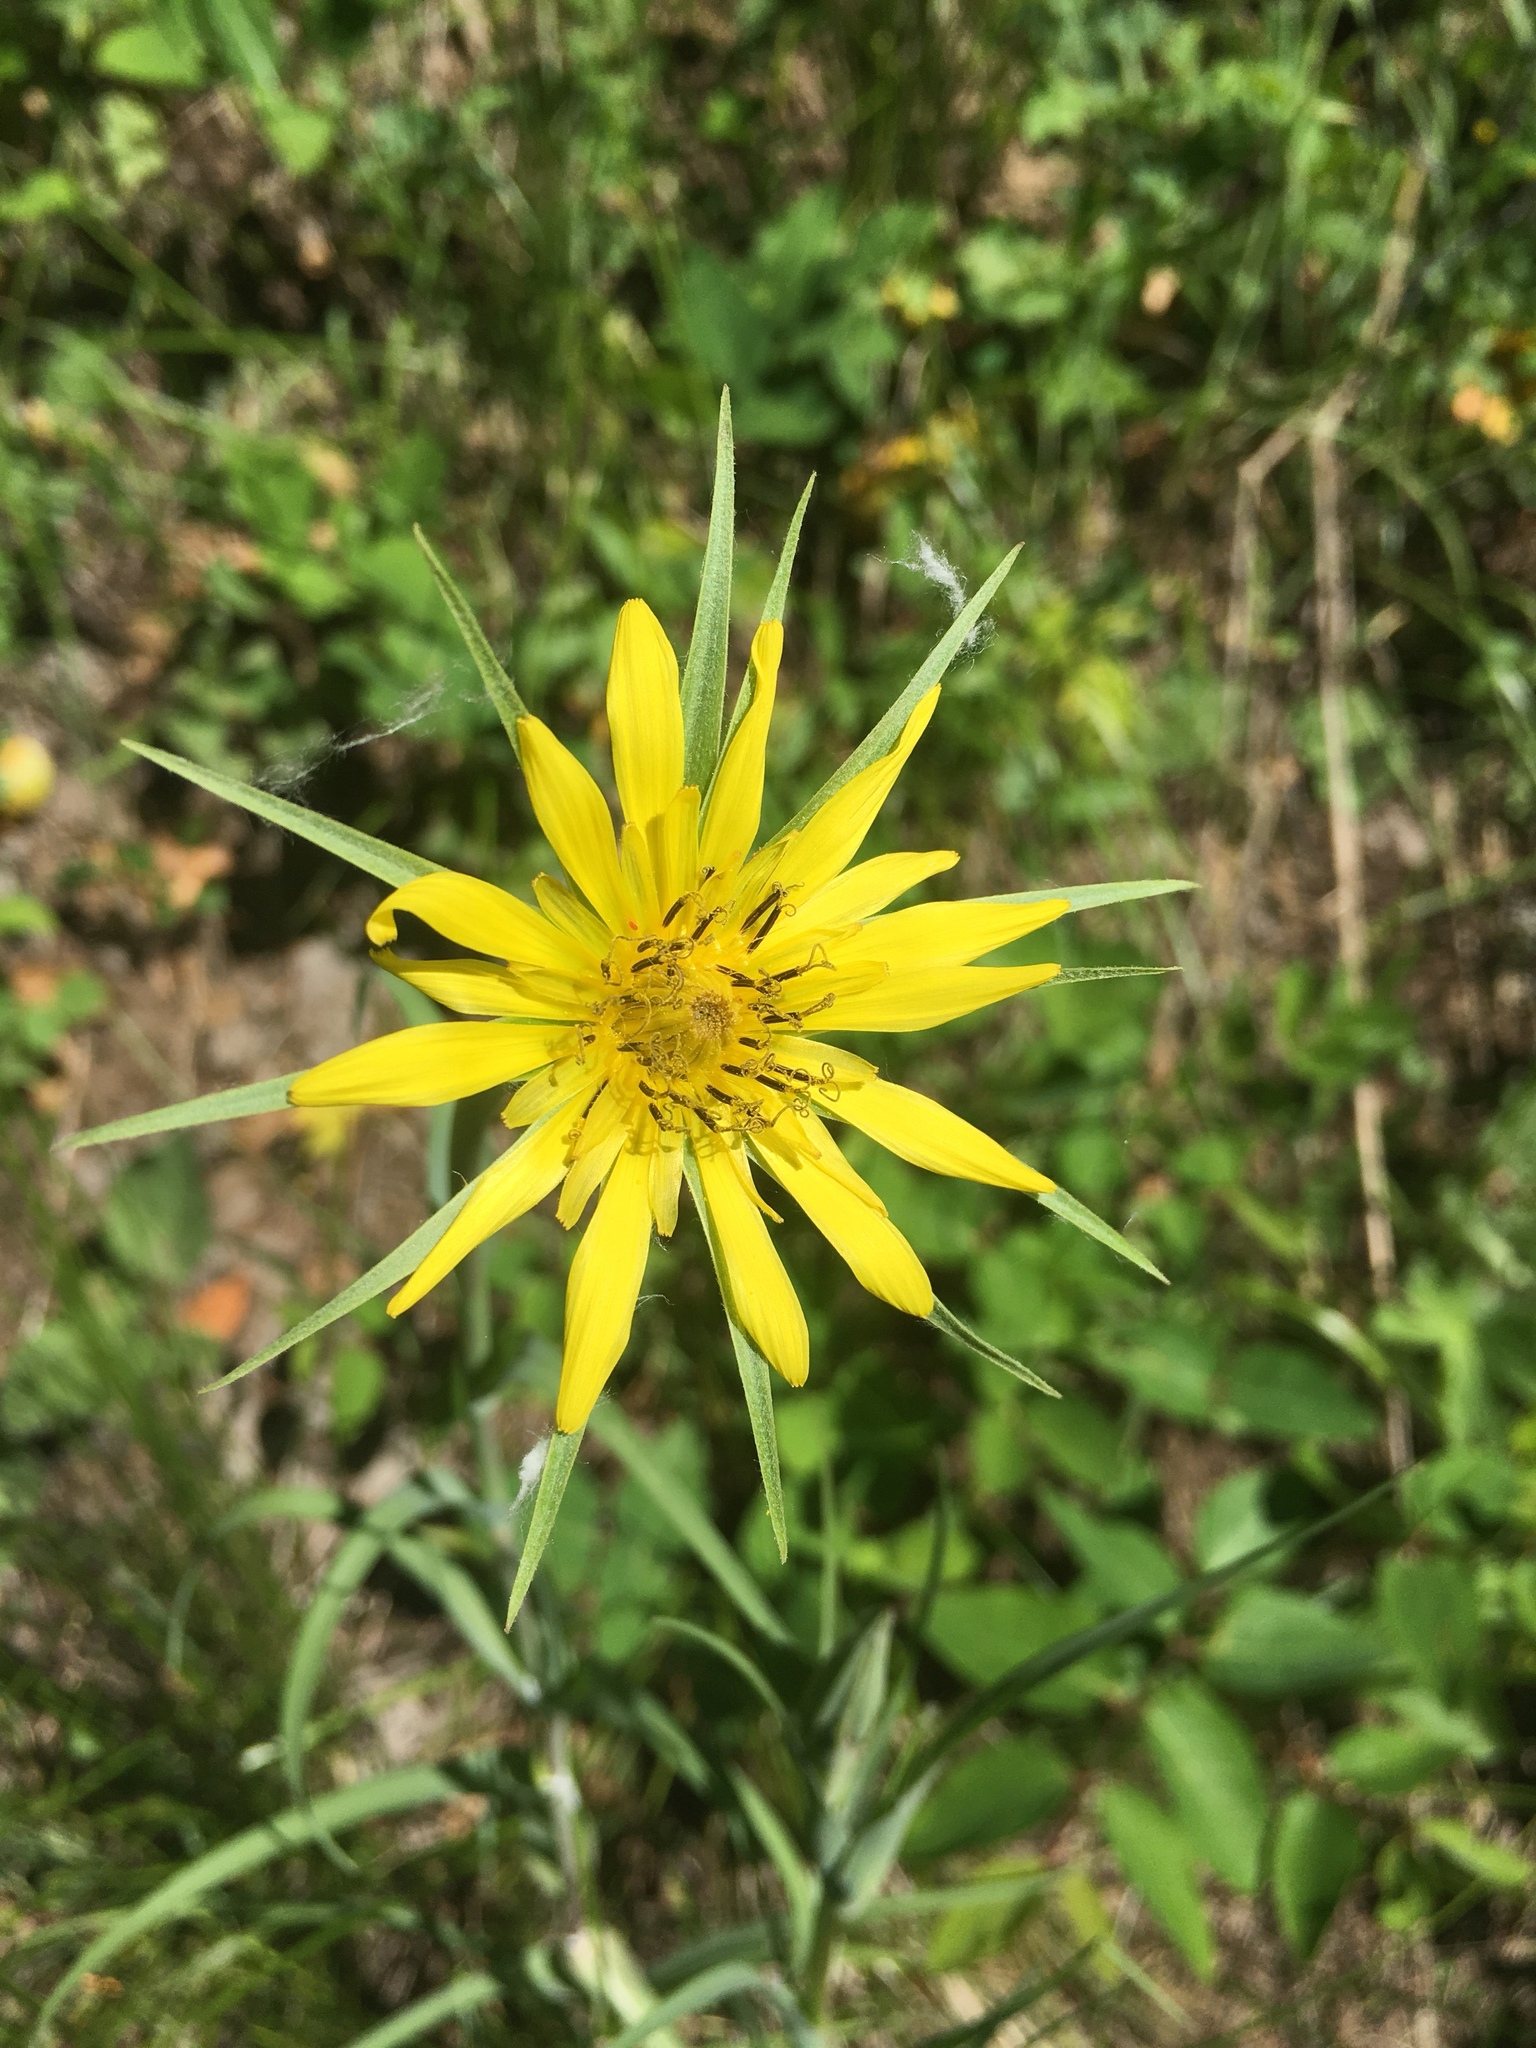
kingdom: Plantae
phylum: Tracheophyta
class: Magnoliopsida
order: Asterales
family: Asteraceae
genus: Tragopogon
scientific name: Tragopogon dubius
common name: Yellow salsify
